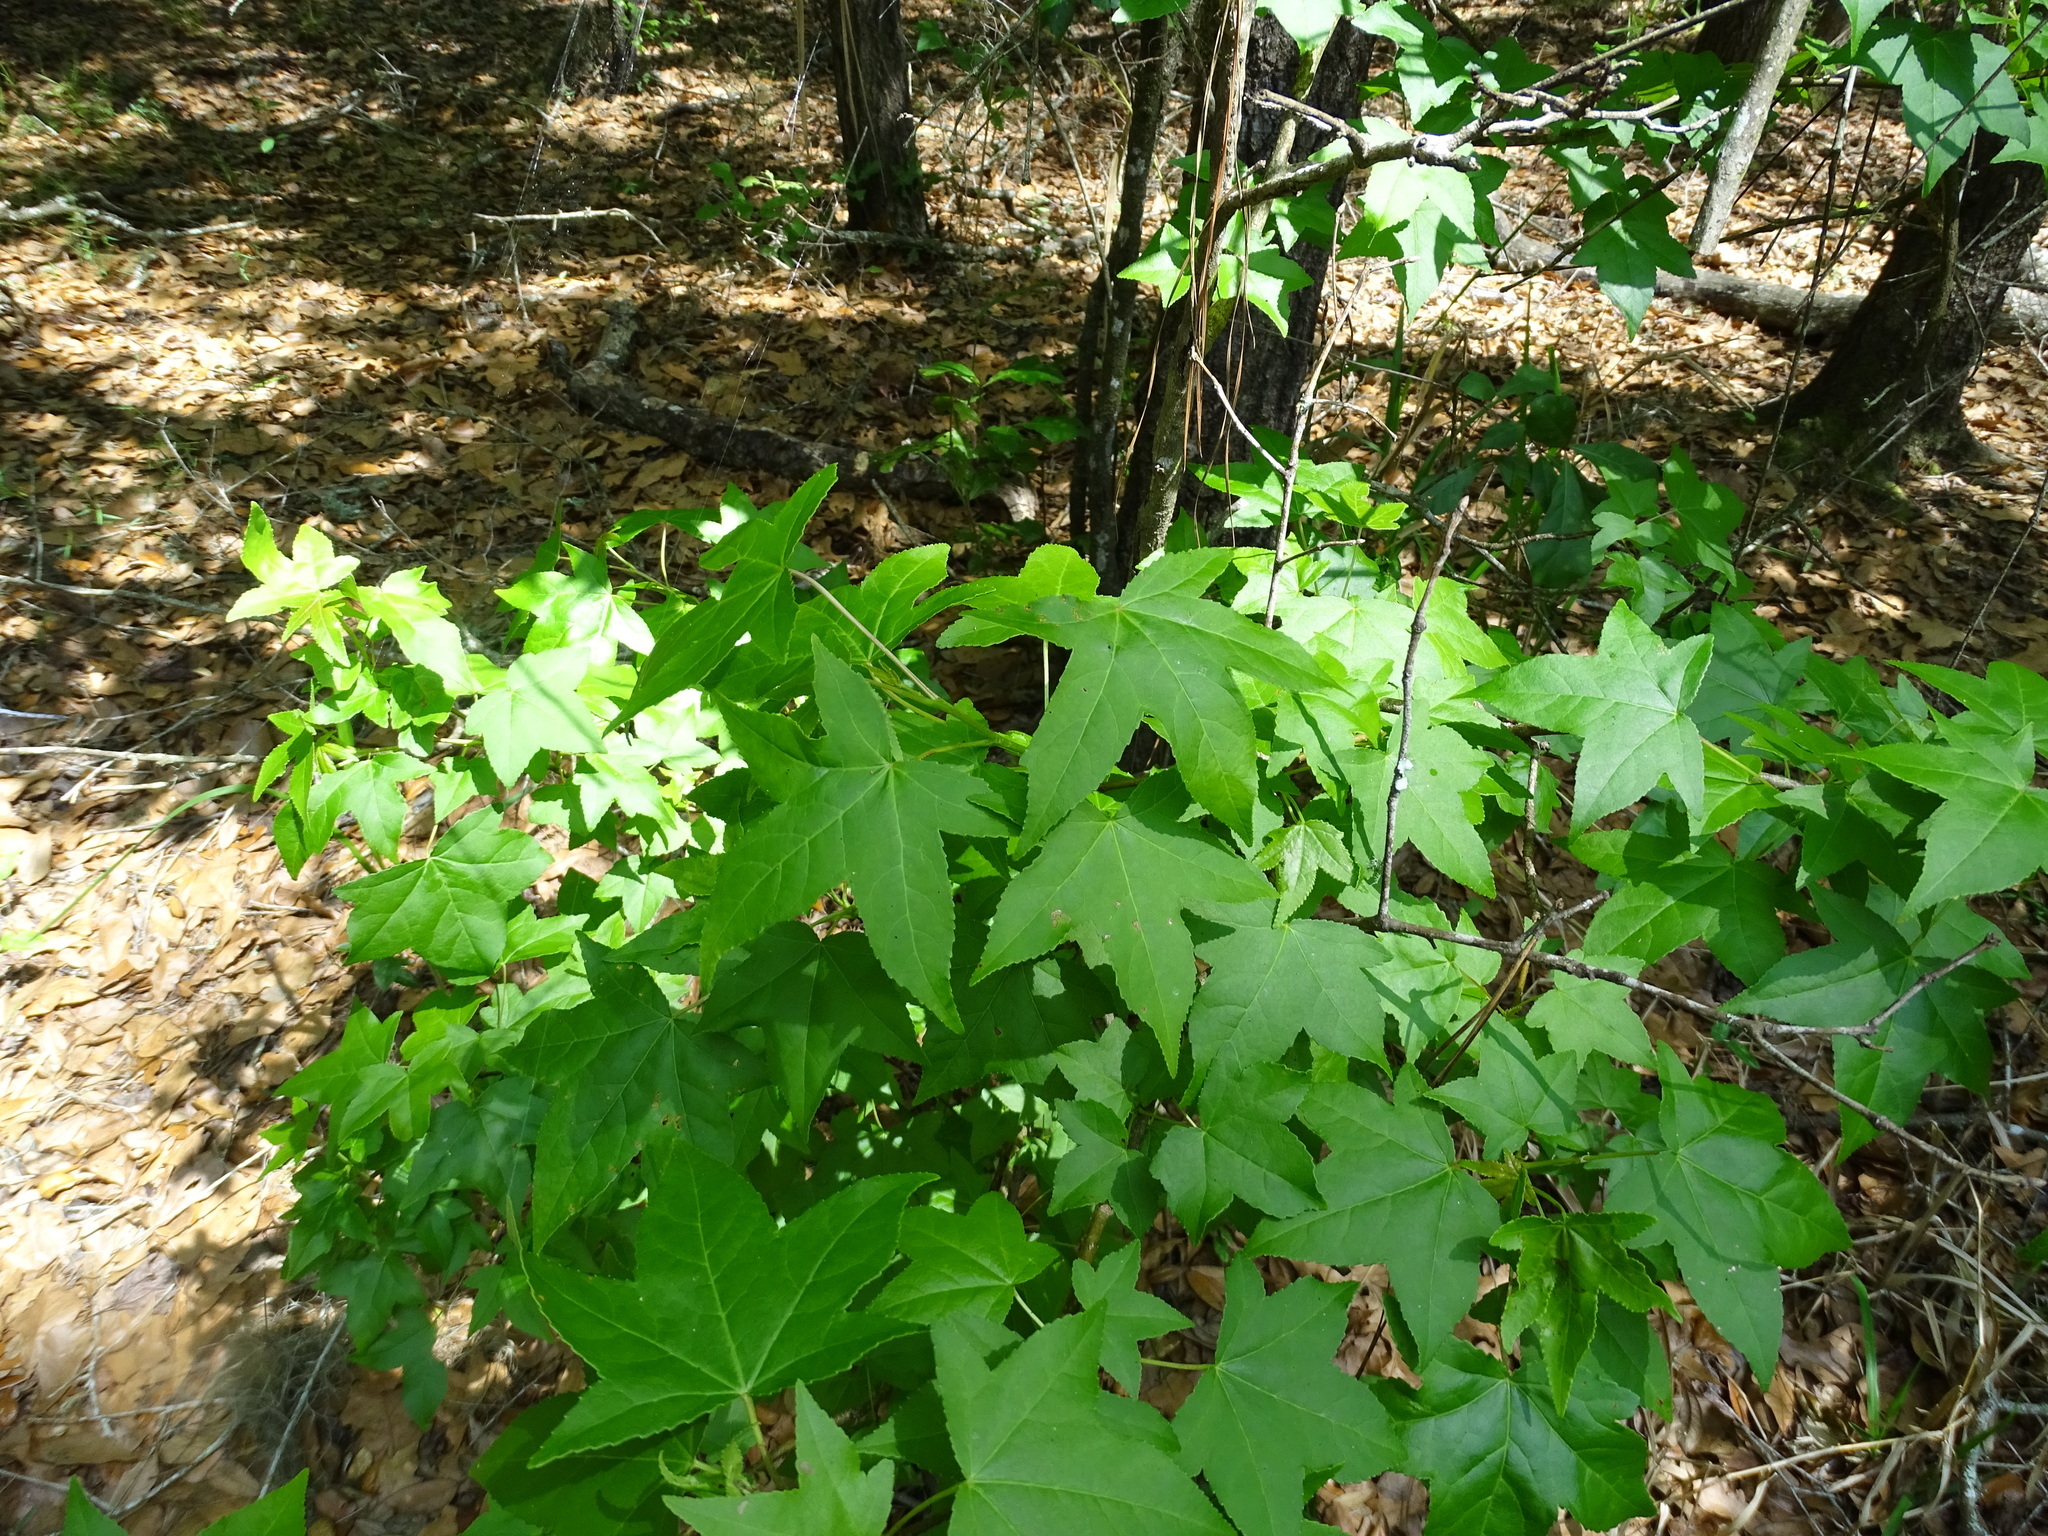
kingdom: Plantae
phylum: Tracheophyta
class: Magnoliopsida
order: Saxifragales
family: Altingiaceae
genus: Liquidambar
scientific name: Liquidambar styraciflua
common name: Sweet gum
